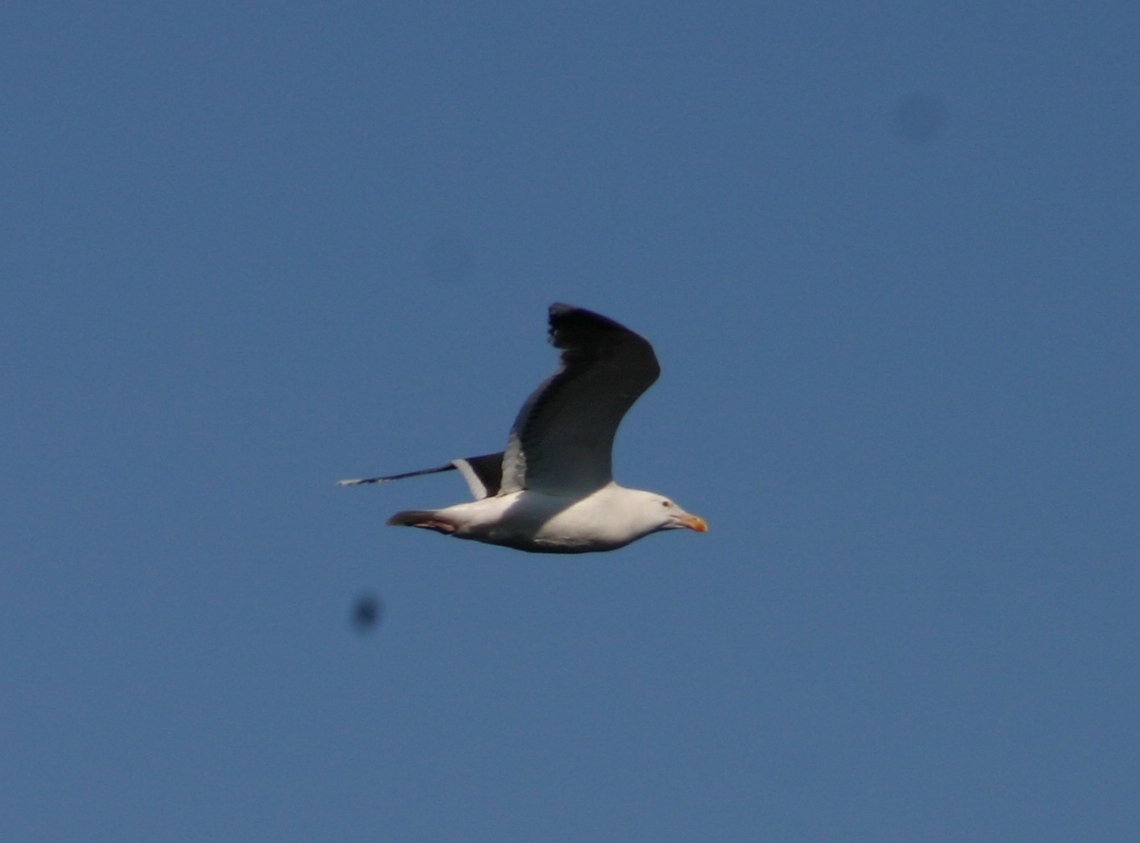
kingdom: Animalia
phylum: Chordata
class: Aves
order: Charadriiformes
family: Laridae
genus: Larus
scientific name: Larus marinus
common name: Great black-backed gull
